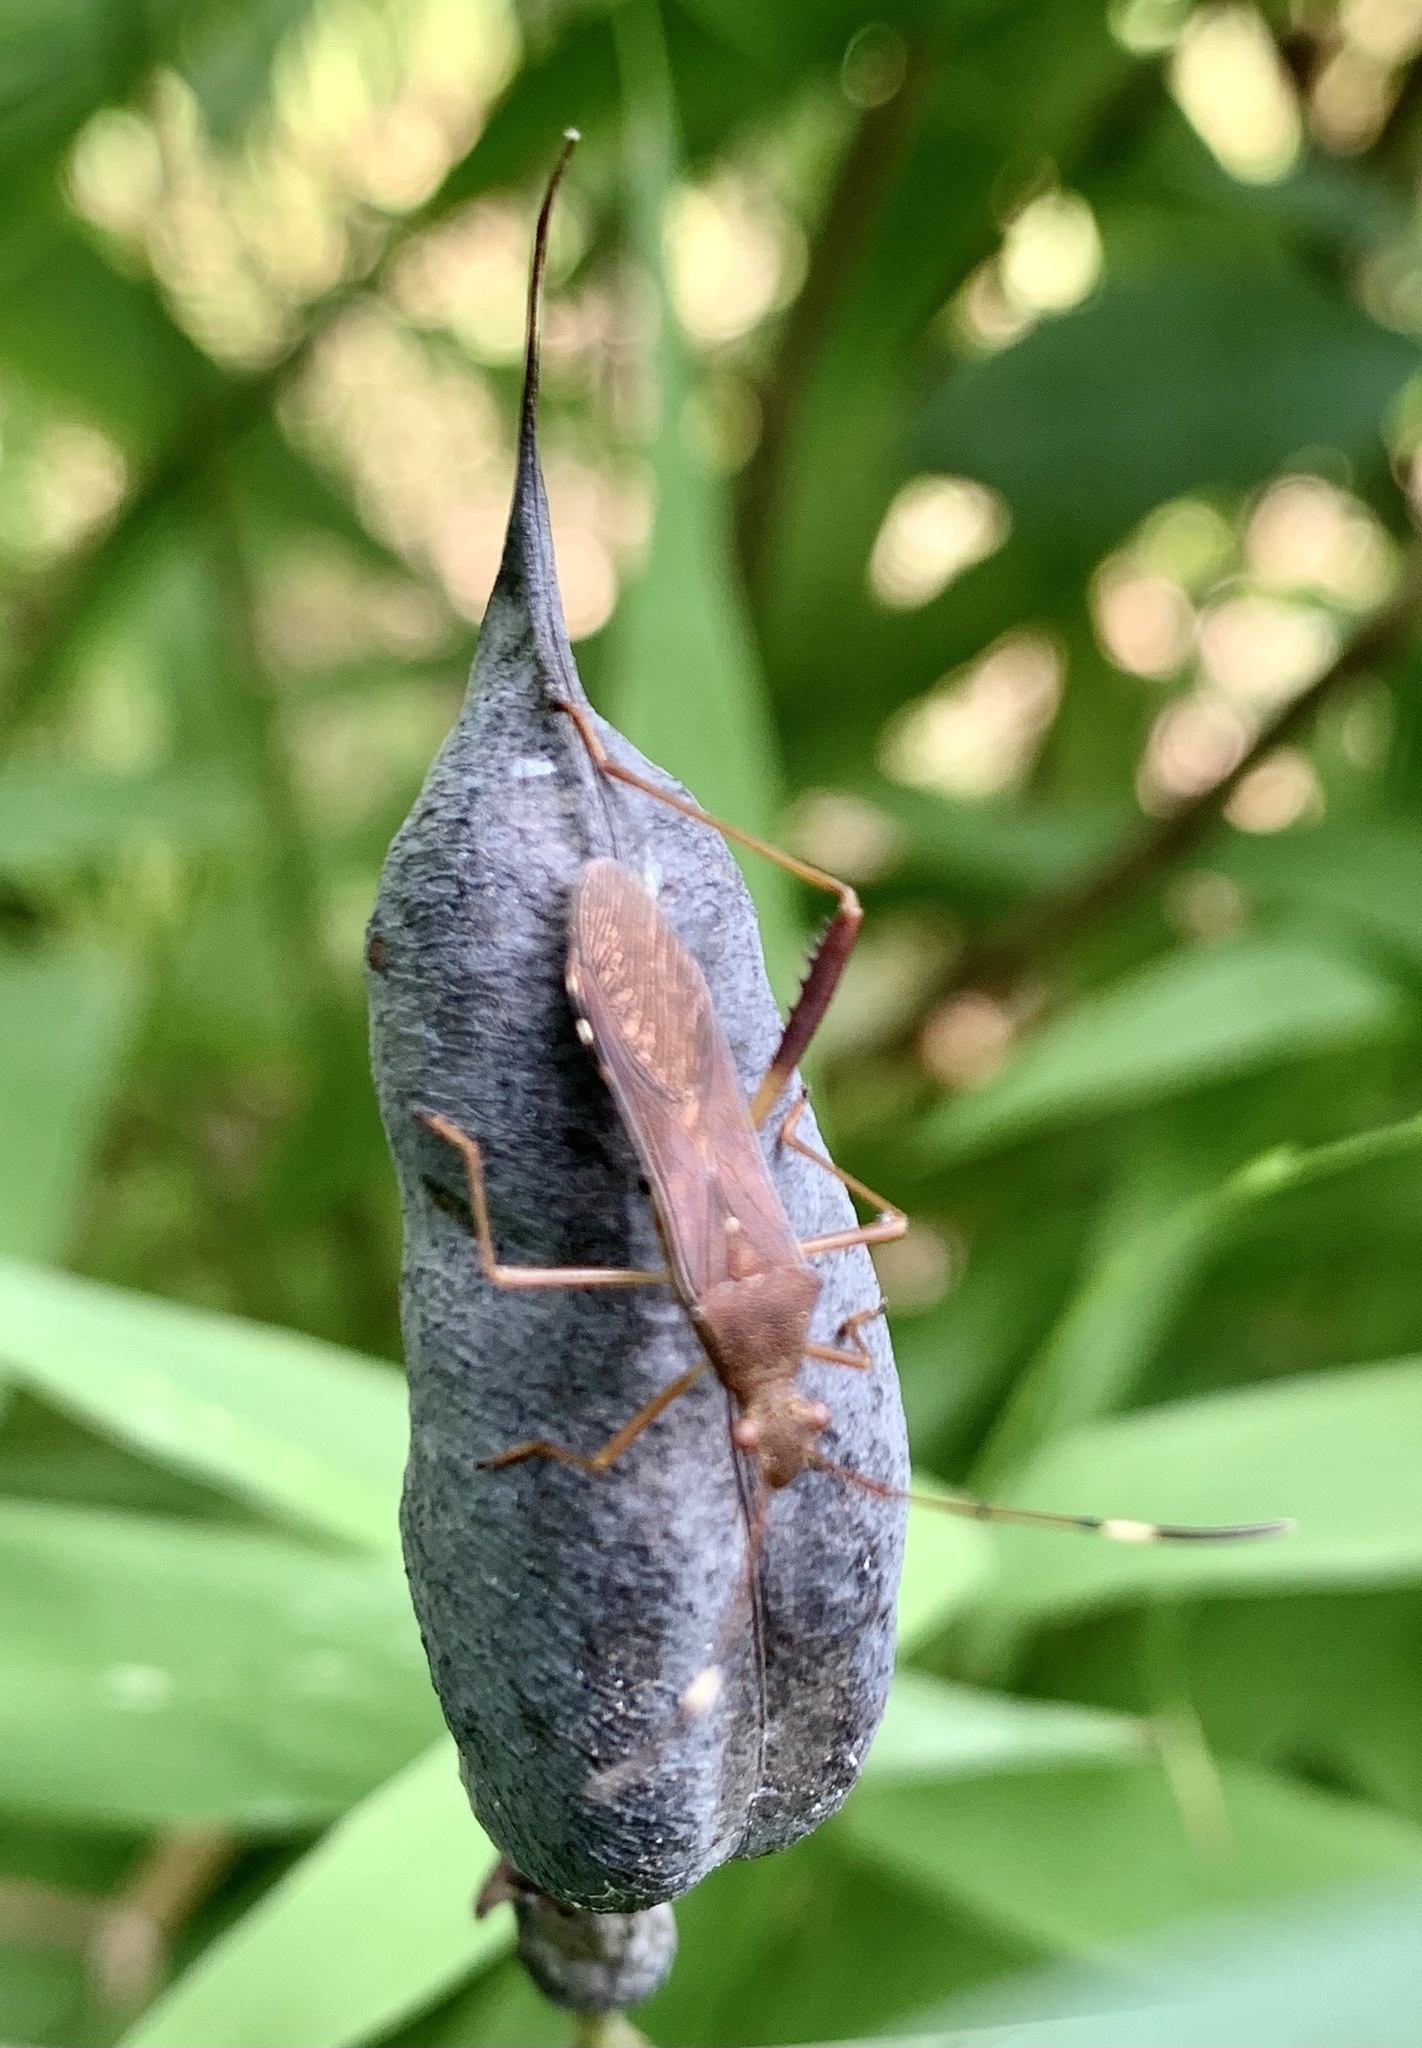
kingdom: Animalia
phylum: Arthropoda
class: Insecta
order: Hemiptera
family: Alydidae
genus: Megalotomus
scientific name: Megalotomus quinquespinosus
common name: Lupine bug
